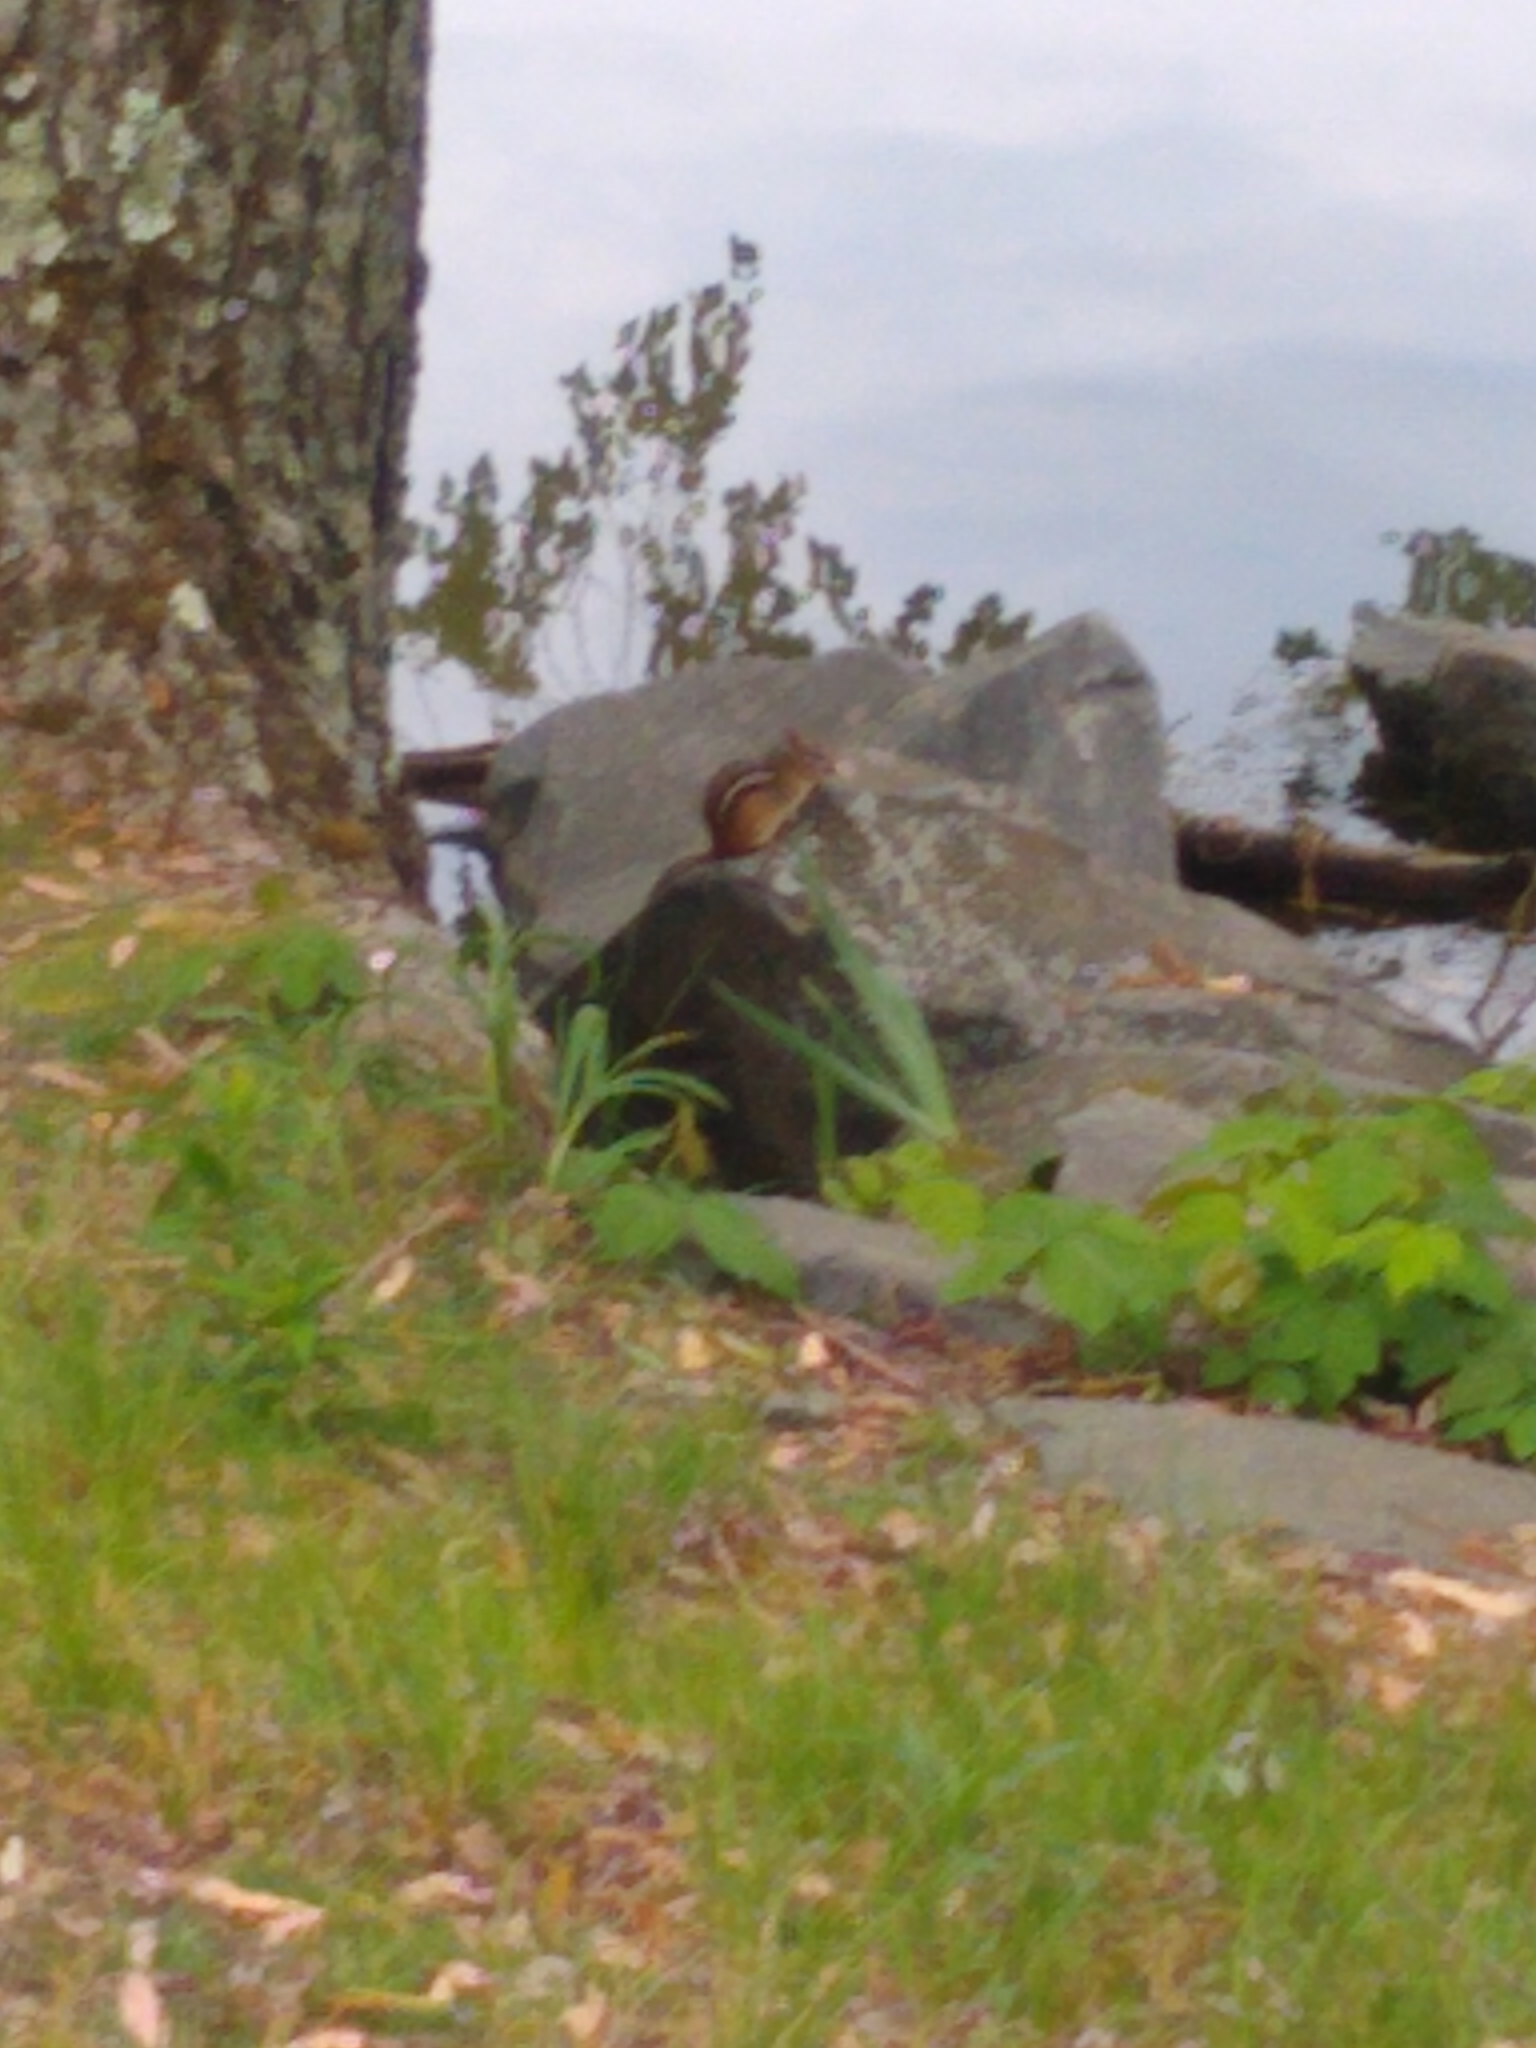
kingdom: Animalia
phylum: Chordata
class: Mammalia
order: Rodentia
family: Sciuridae
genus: Tamias
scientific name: Tamias striatus
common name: Eastern chipmunk
